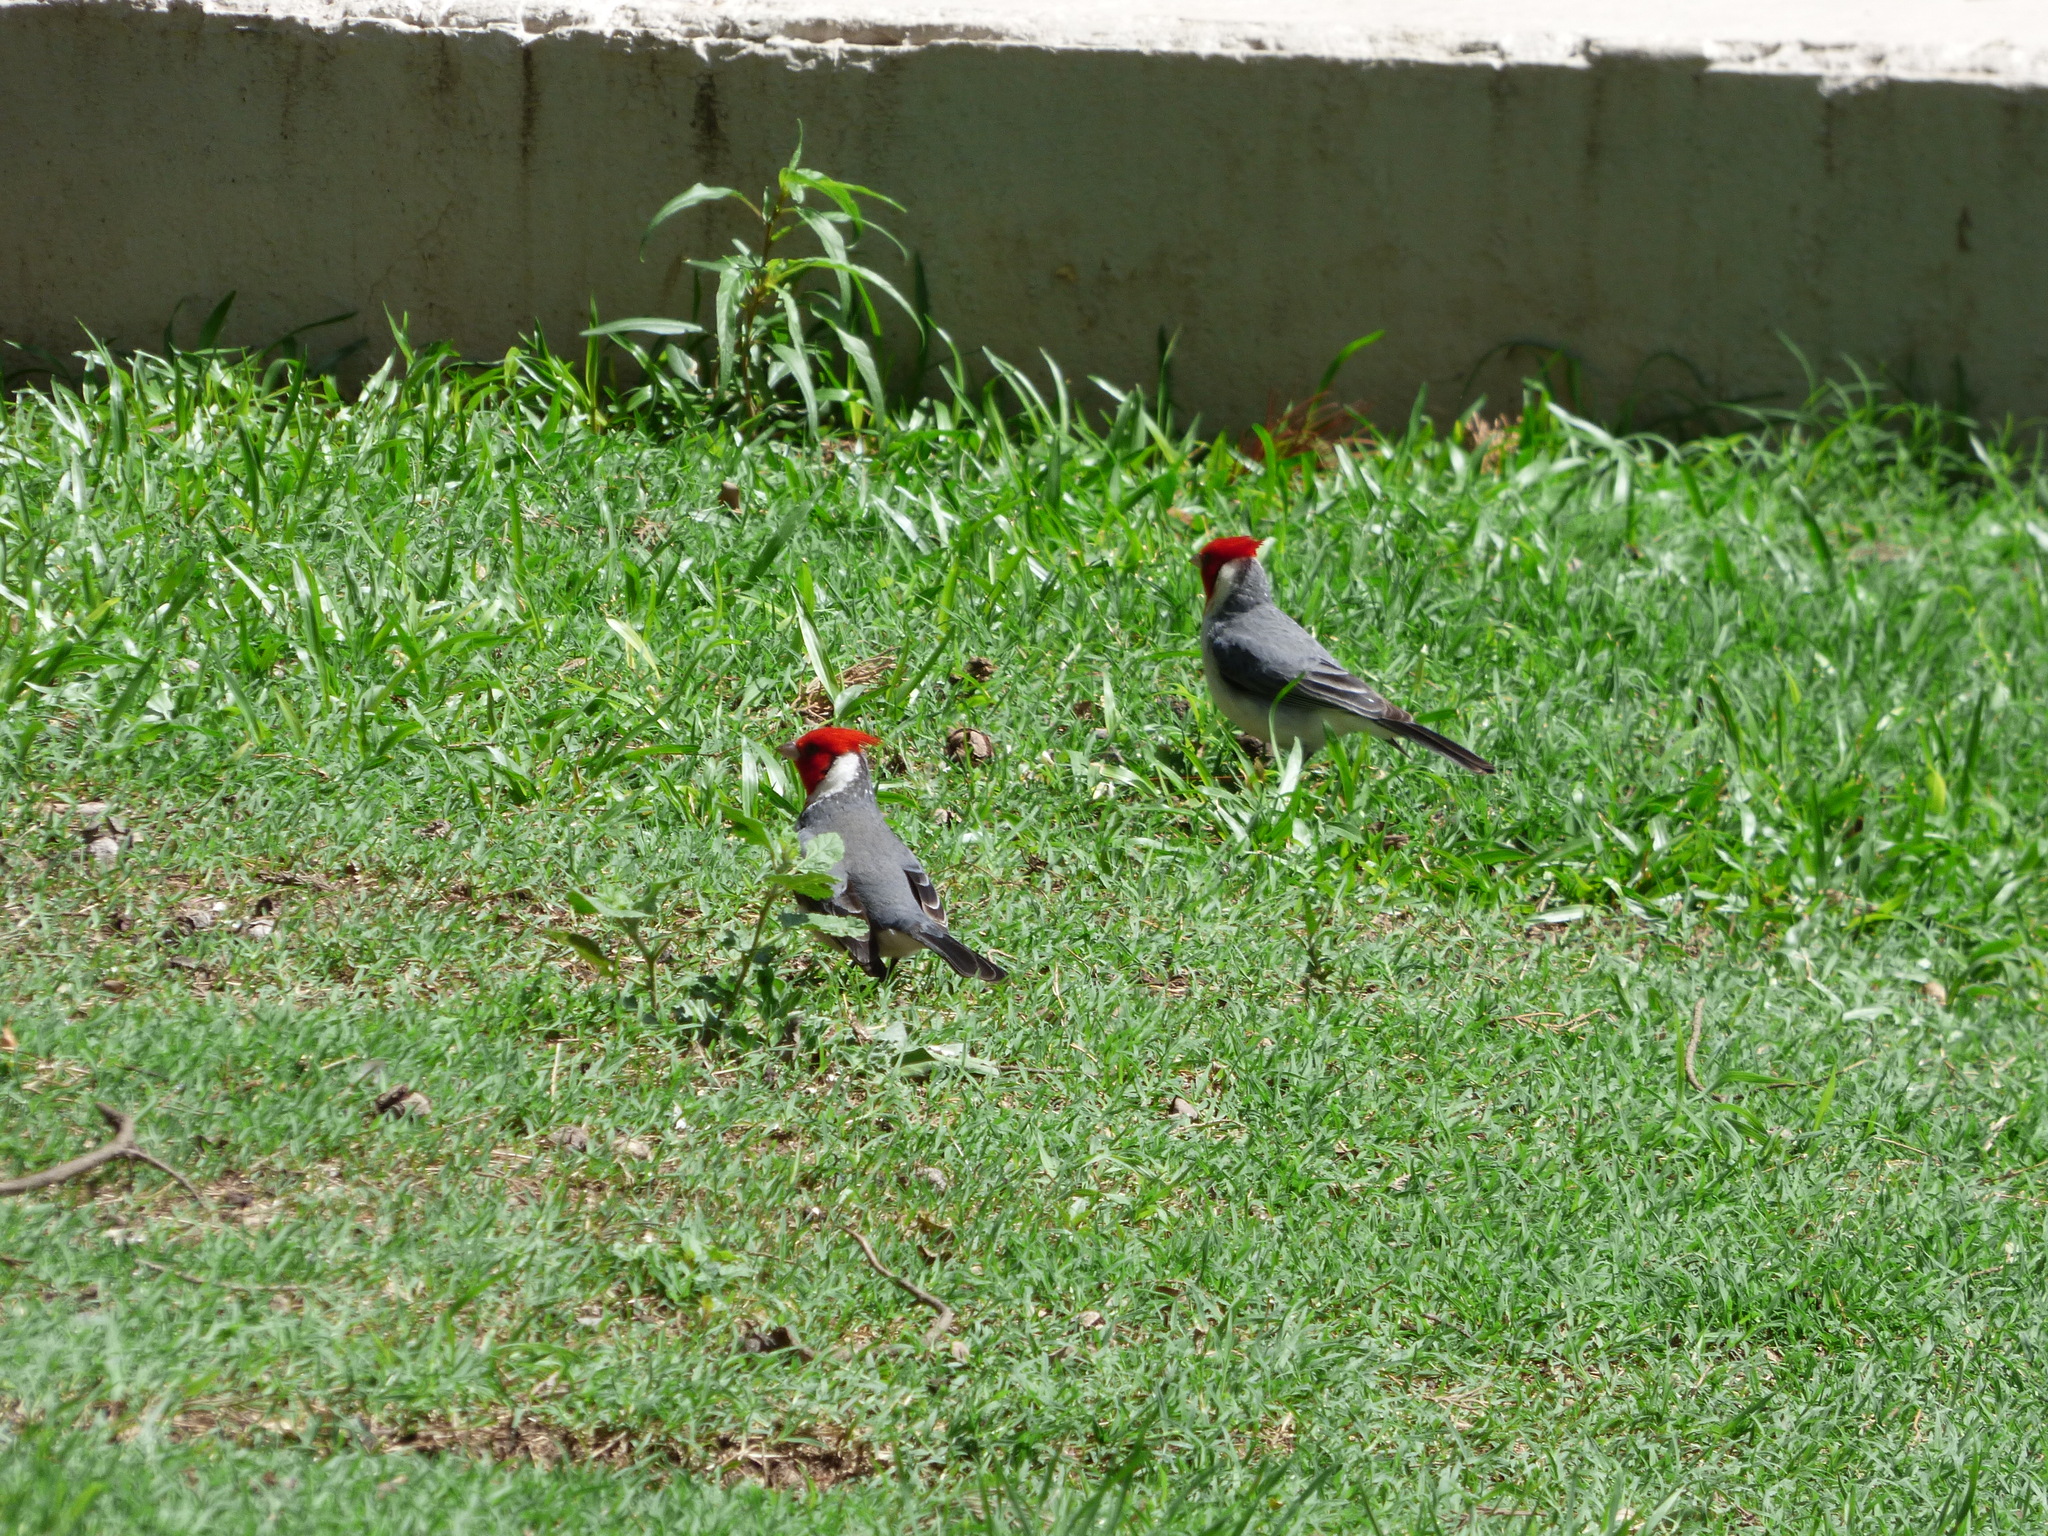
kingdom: Animalia
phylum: Chordata
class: Aves
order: Passeriformes
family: Thraupidae
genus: Paroaria
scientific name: Paroaria coronata
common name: Red-crested cardinal
